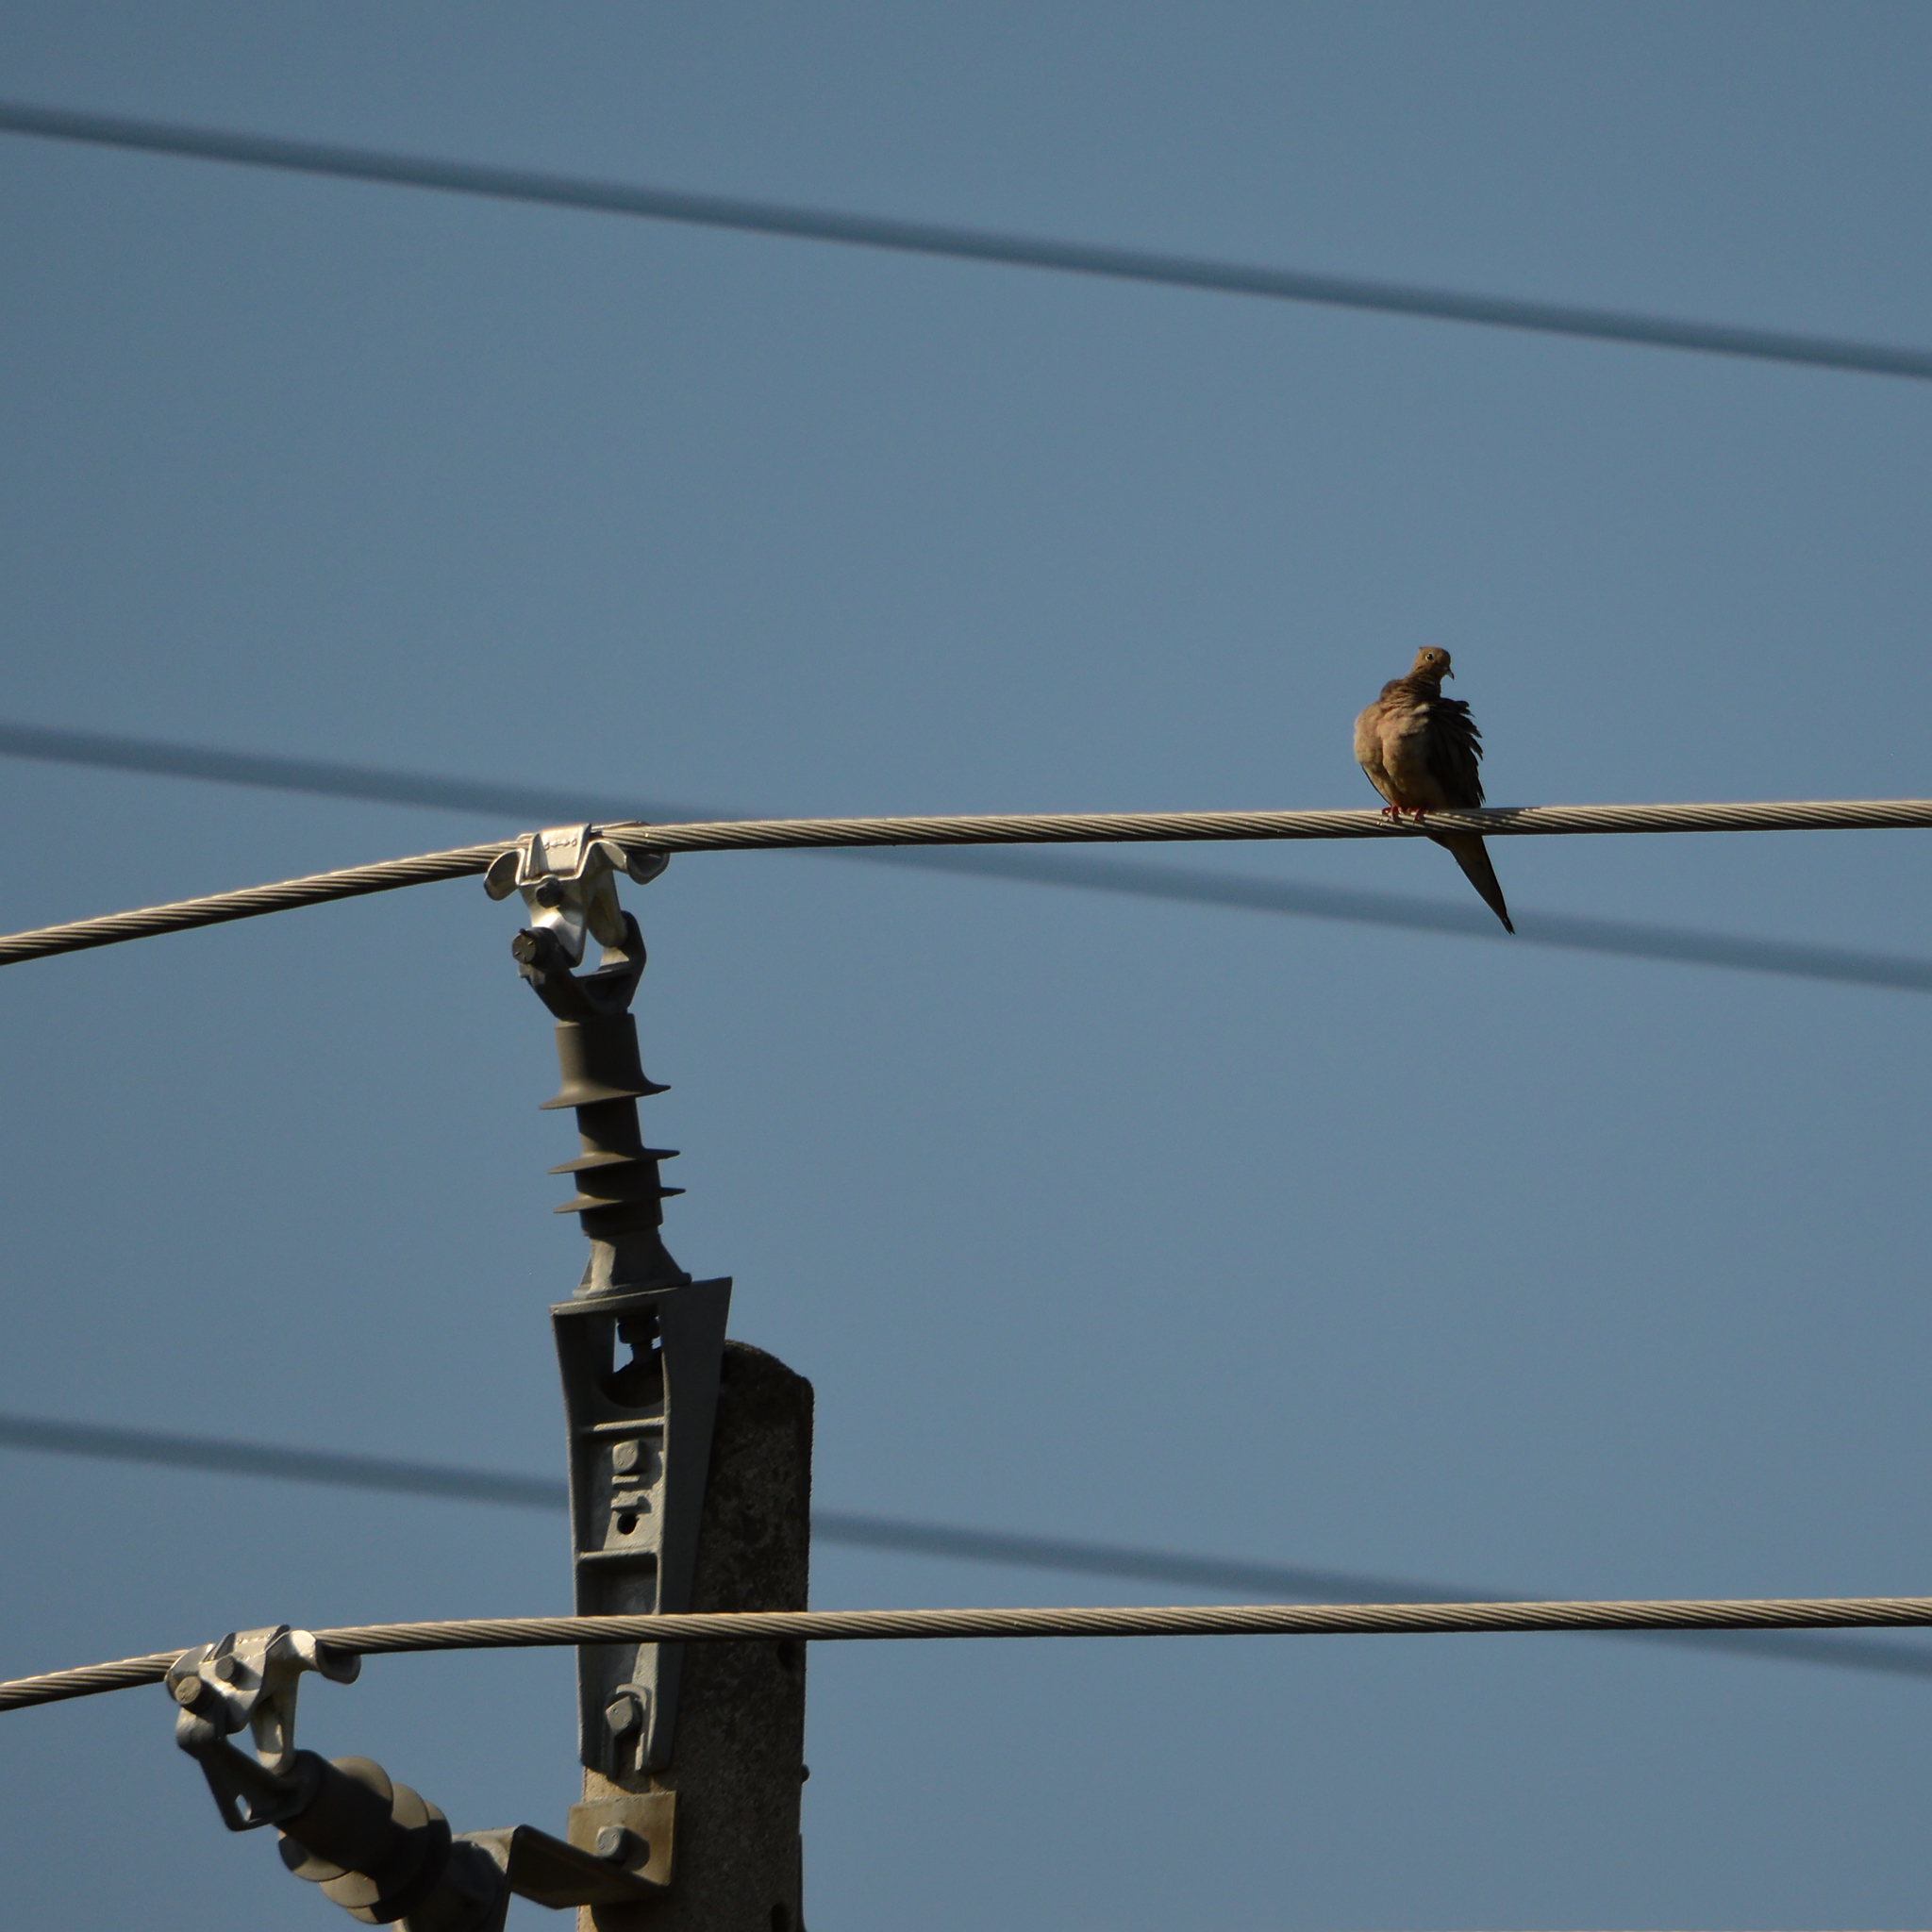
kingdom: Animalia
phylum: Chordata
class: Aves
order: Columbiformes
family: Columbidae
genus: Zenaida
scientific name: Zenaida macroura
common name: Mourning dove
